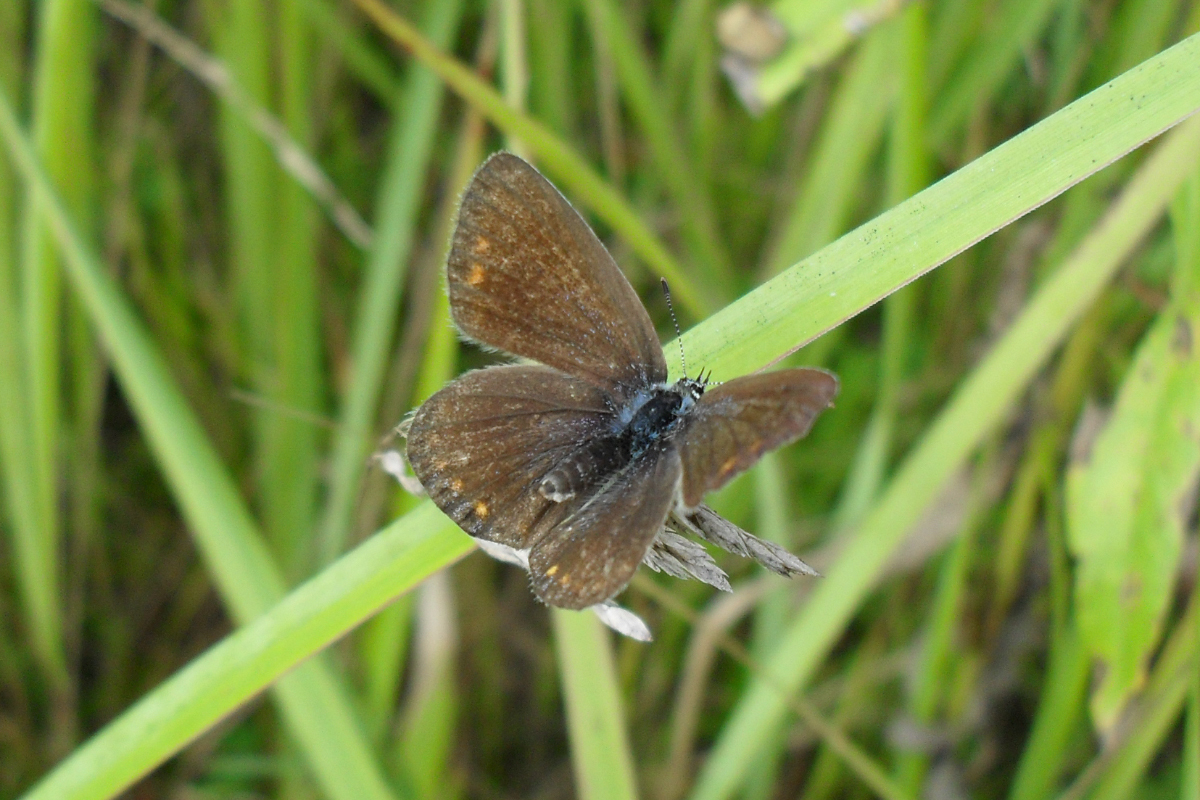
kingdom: Animalia
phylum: Arthropoda
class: Insecta
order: Lepidoptera
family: Lycaenidae
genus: Polyommatus
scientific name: Polyommatus icarus
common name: Common blue
